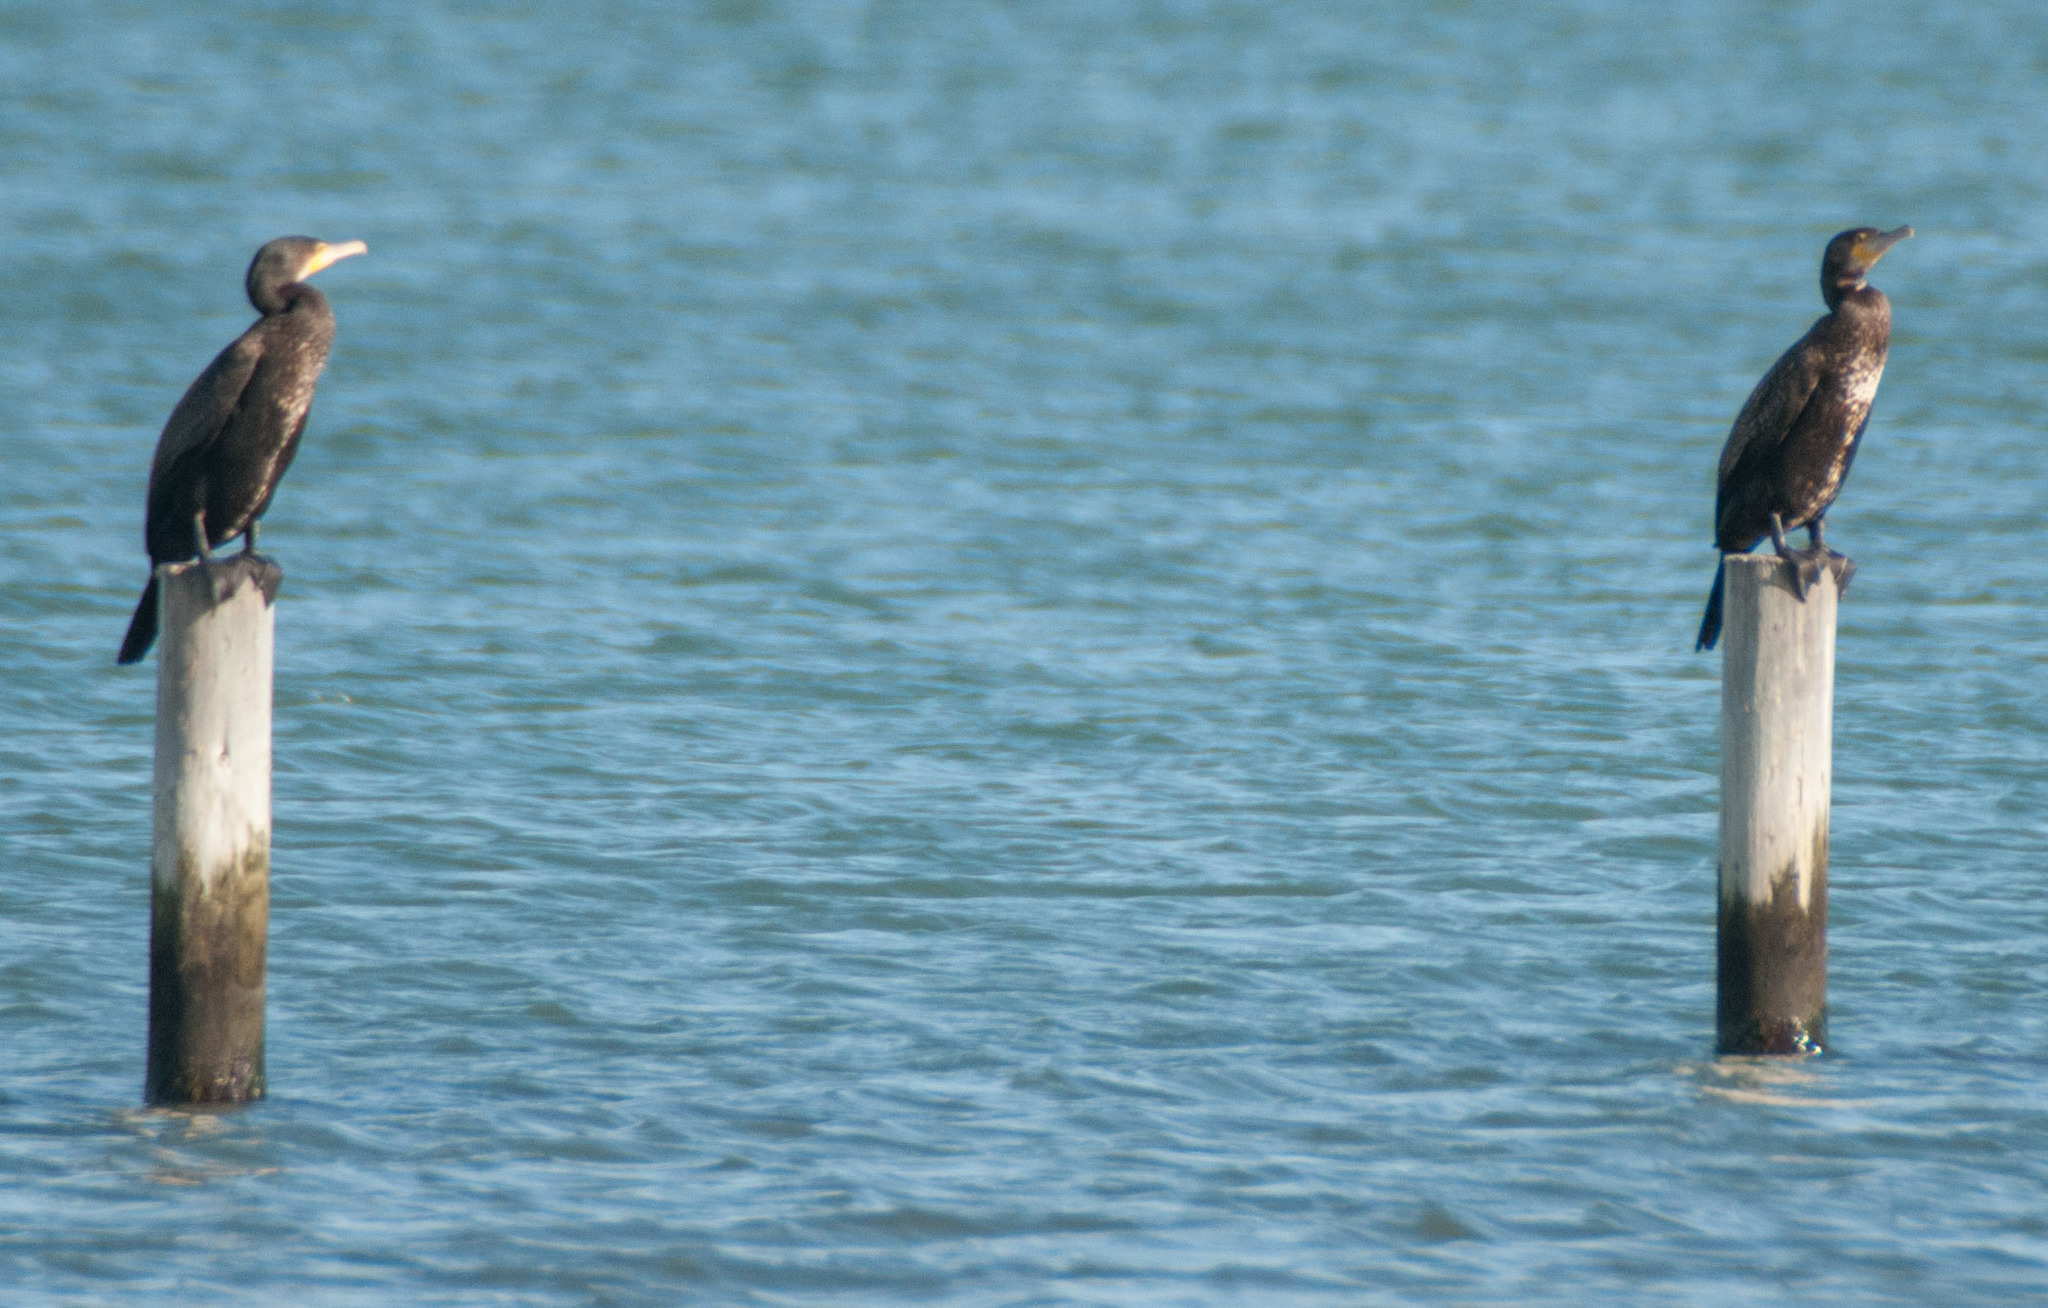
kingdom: Animalia
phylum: Chordata
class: Aves
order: Suliformes
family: Phalacrocoracidae
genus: Phalacrocorax
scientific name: Phalacrocorax carbo
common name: Great cormorant
